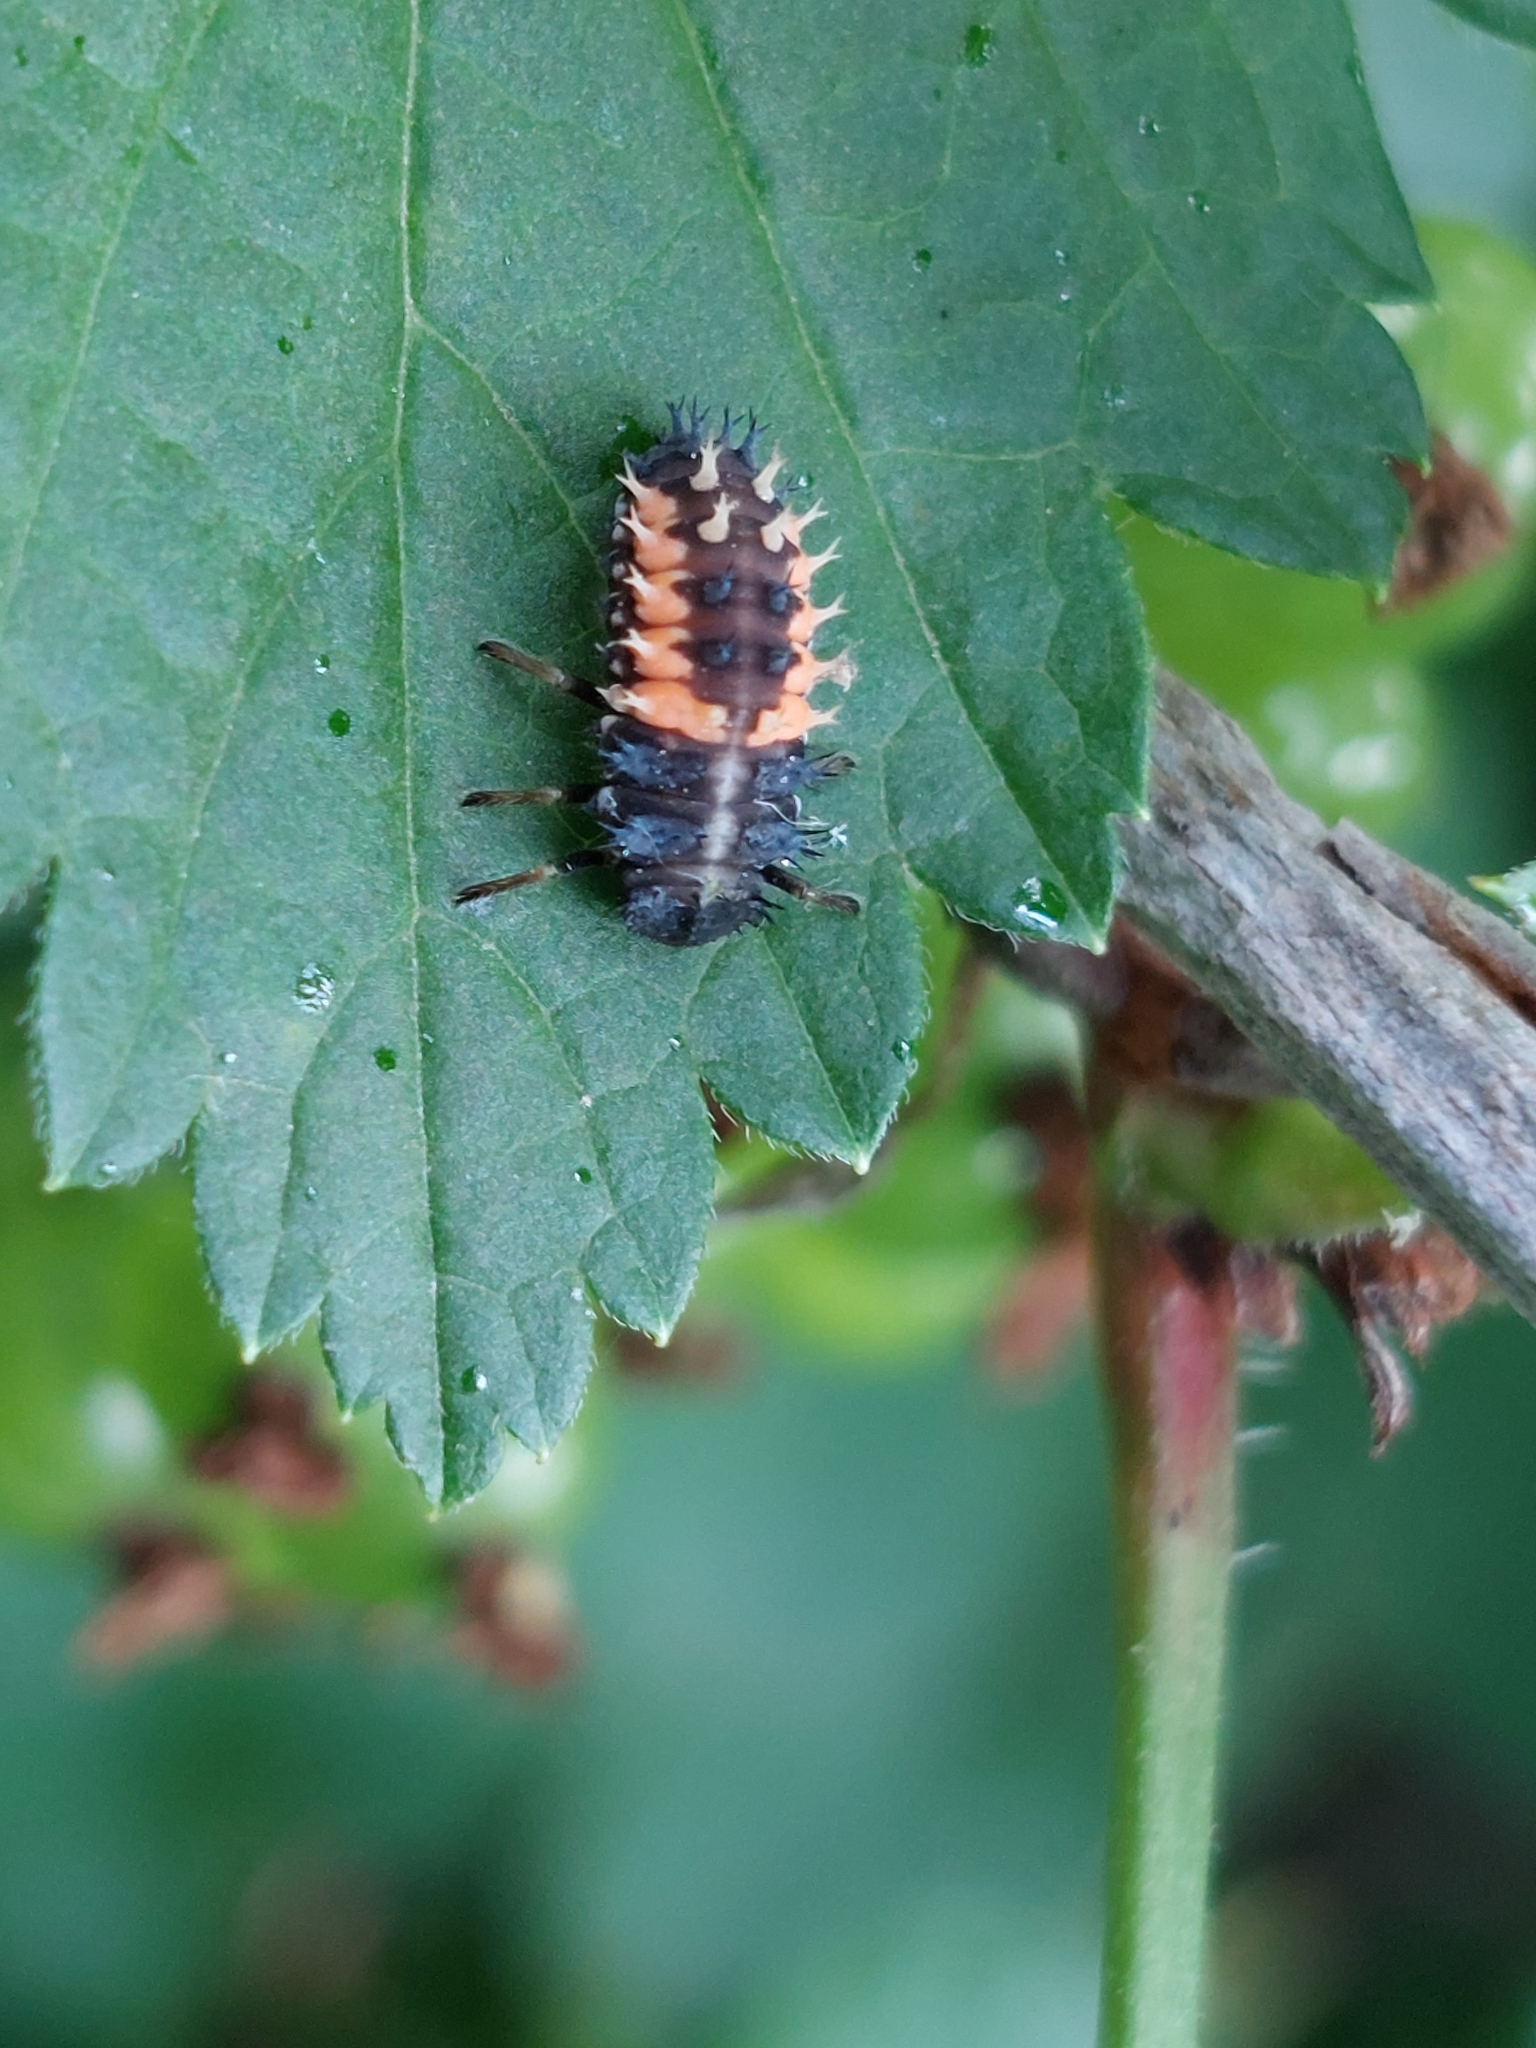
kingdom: Animalia
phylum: Arthropoda
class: Insecta
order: Coleoptera
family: Coccinellidae
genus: Harmonia
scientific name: Harmonia axyridis
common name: Harlequin ladybird
